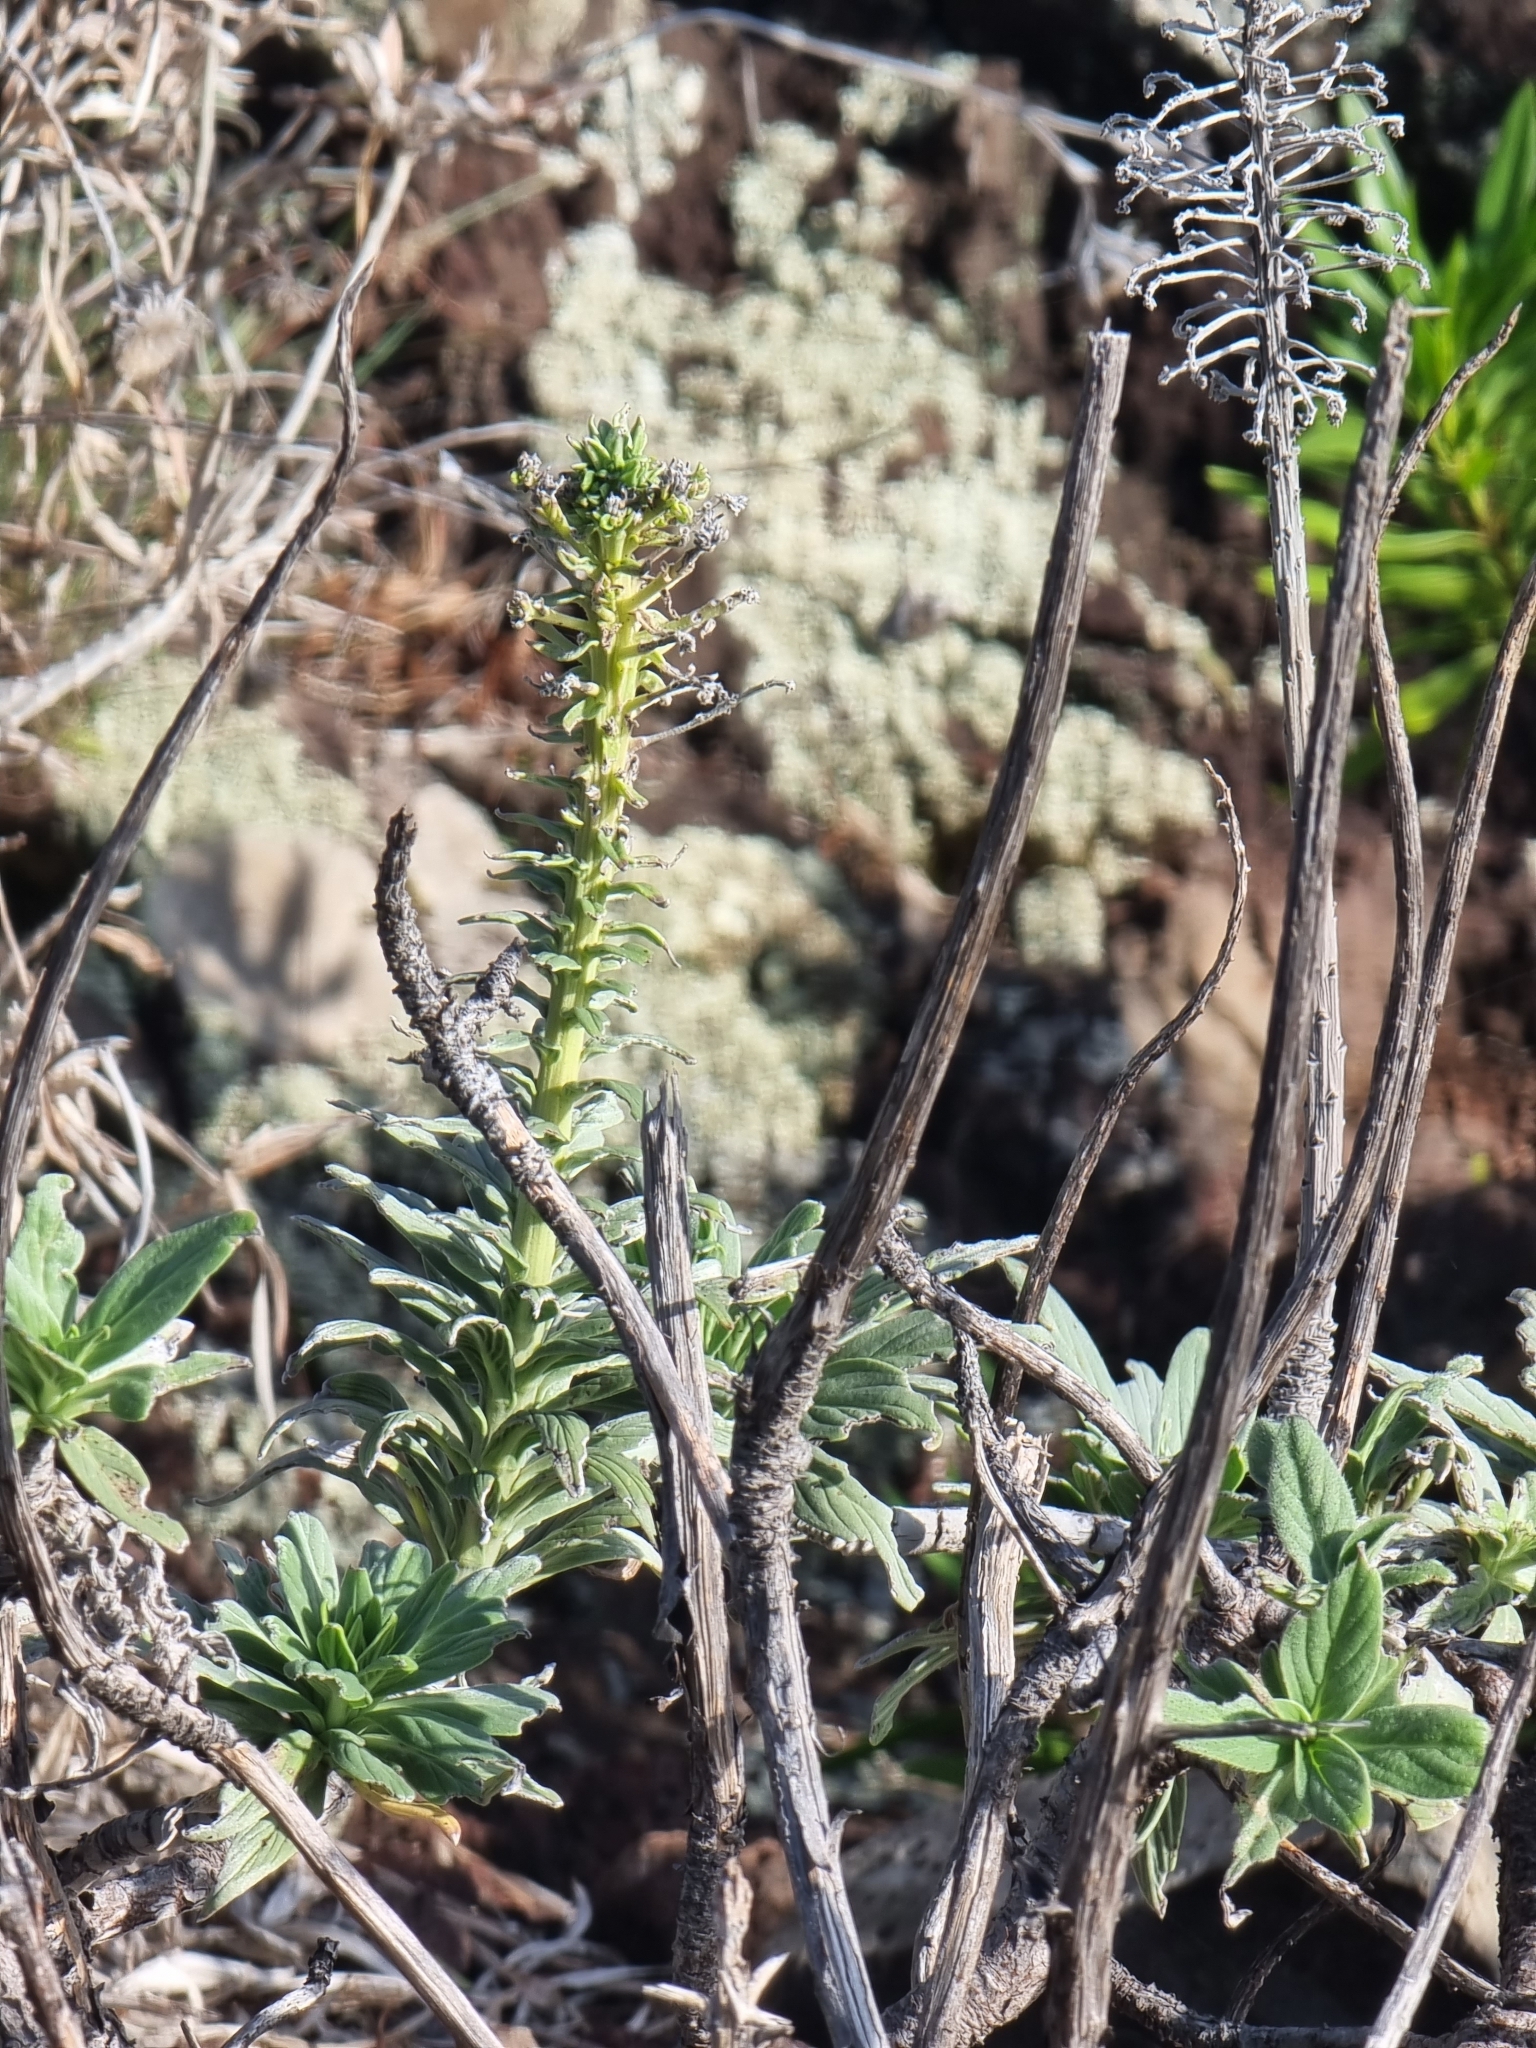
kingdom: Plantae
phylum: Tracheophyta
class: Magnoliopsida
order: Boraginales
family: Boraginaceae
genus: Echium
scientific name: Echium nervosum
